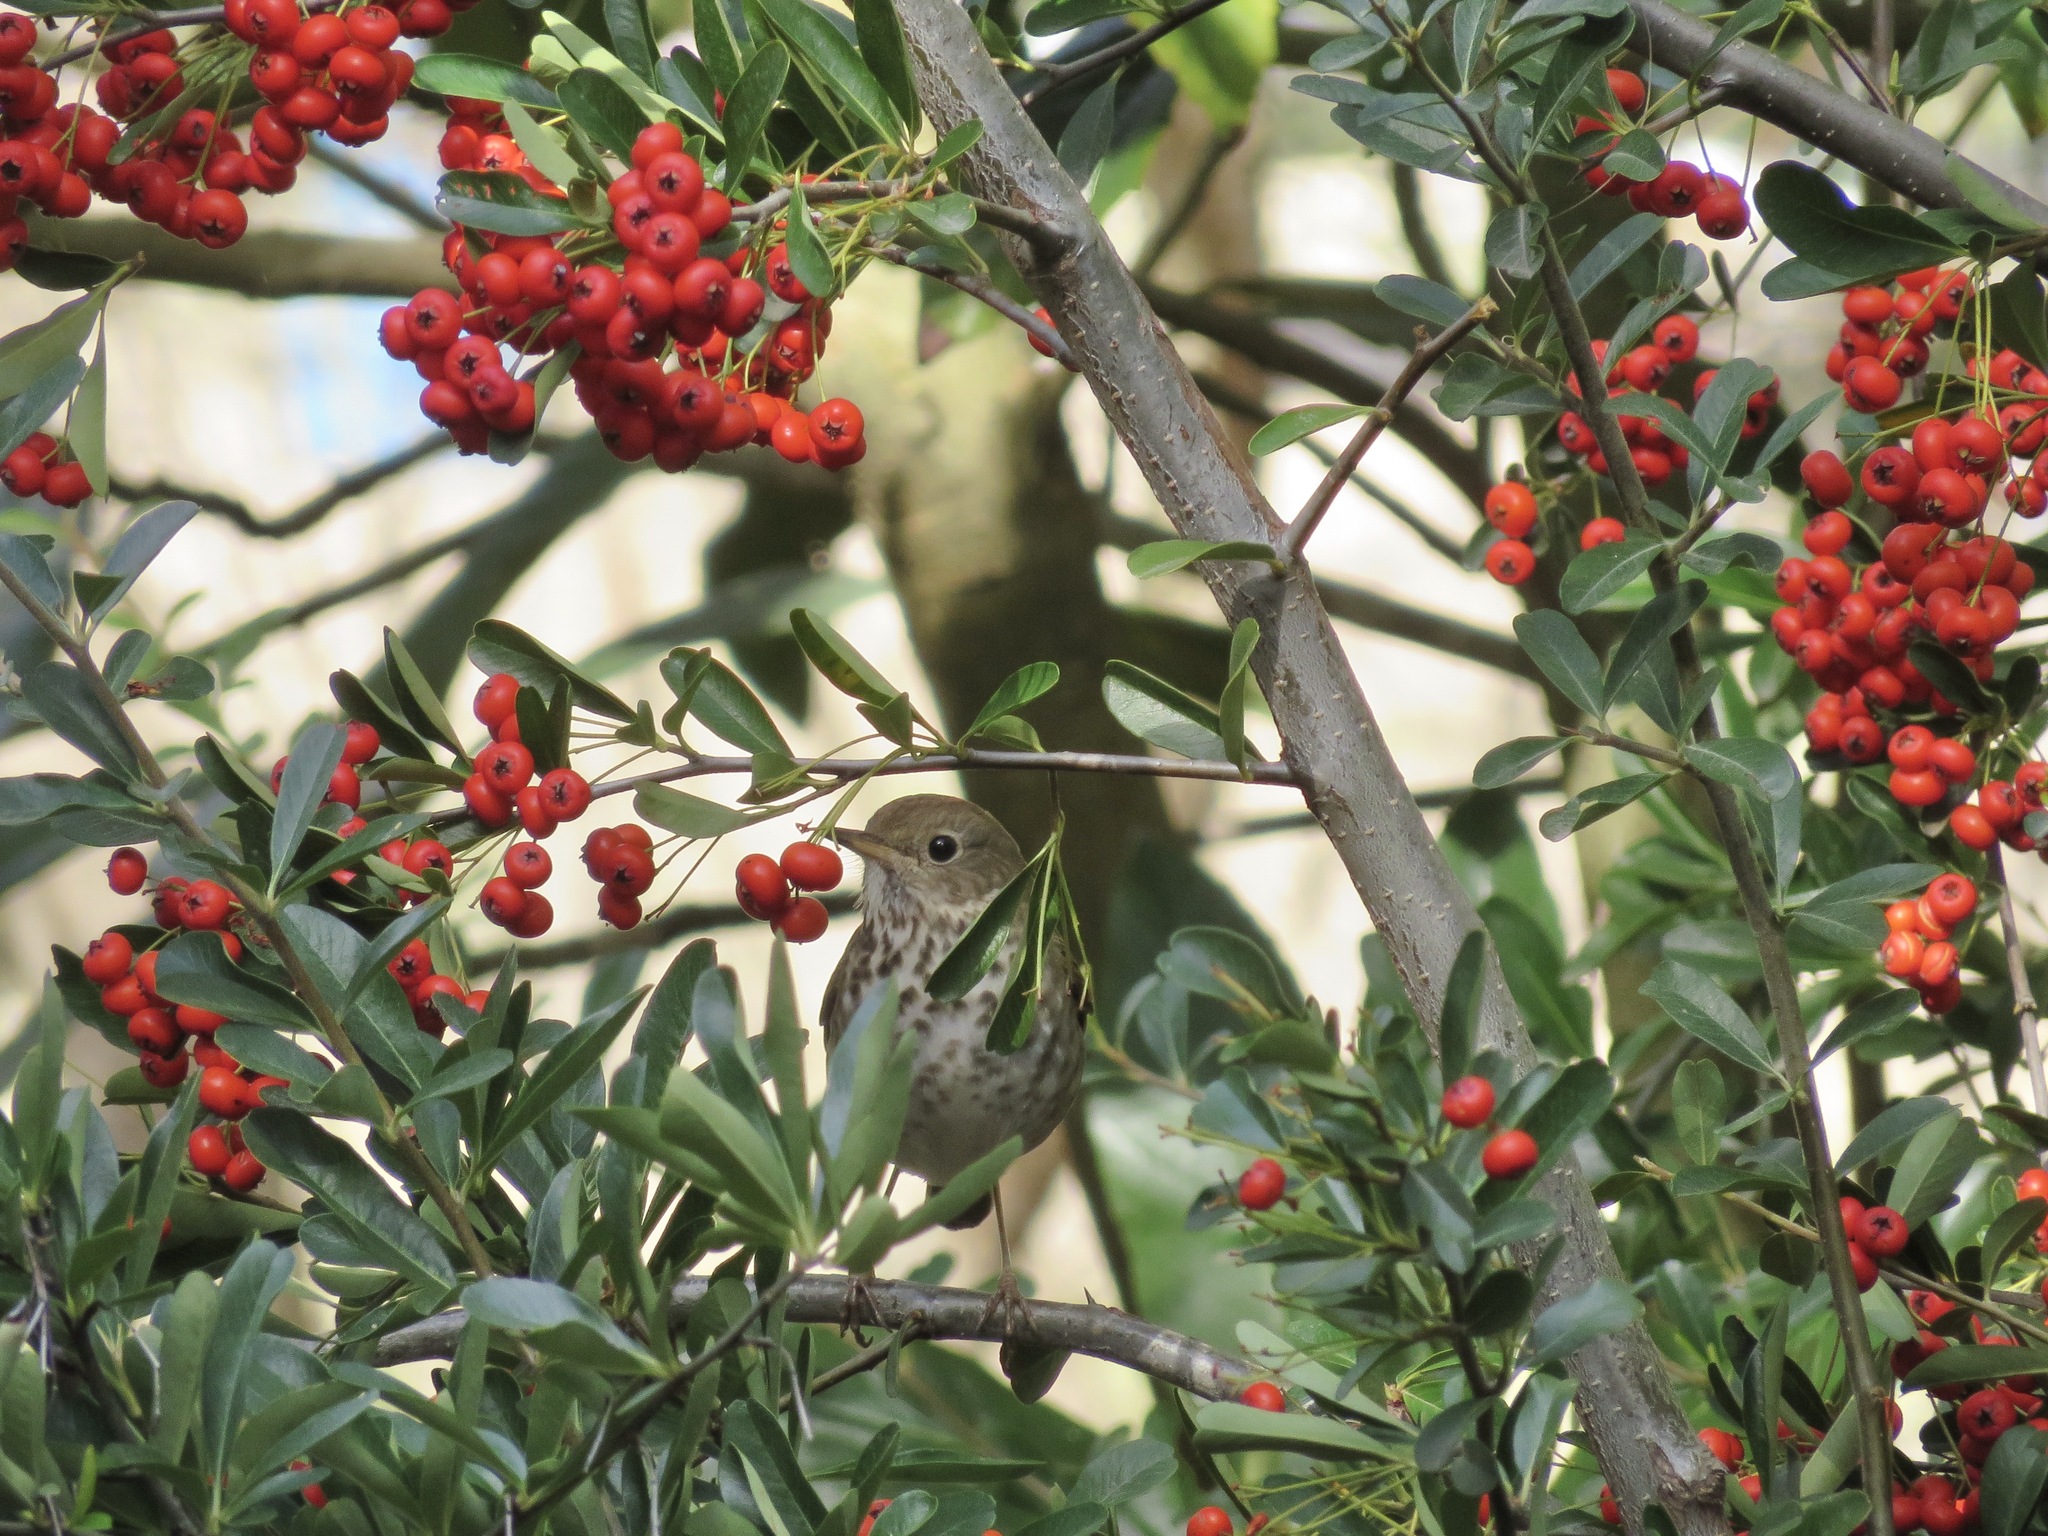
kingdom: Animalia
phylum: Chordata
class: Aves
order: Passeriformes
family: Turdidae
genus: Catharus
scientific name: Catharus guttatus
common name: Hermit thrush
